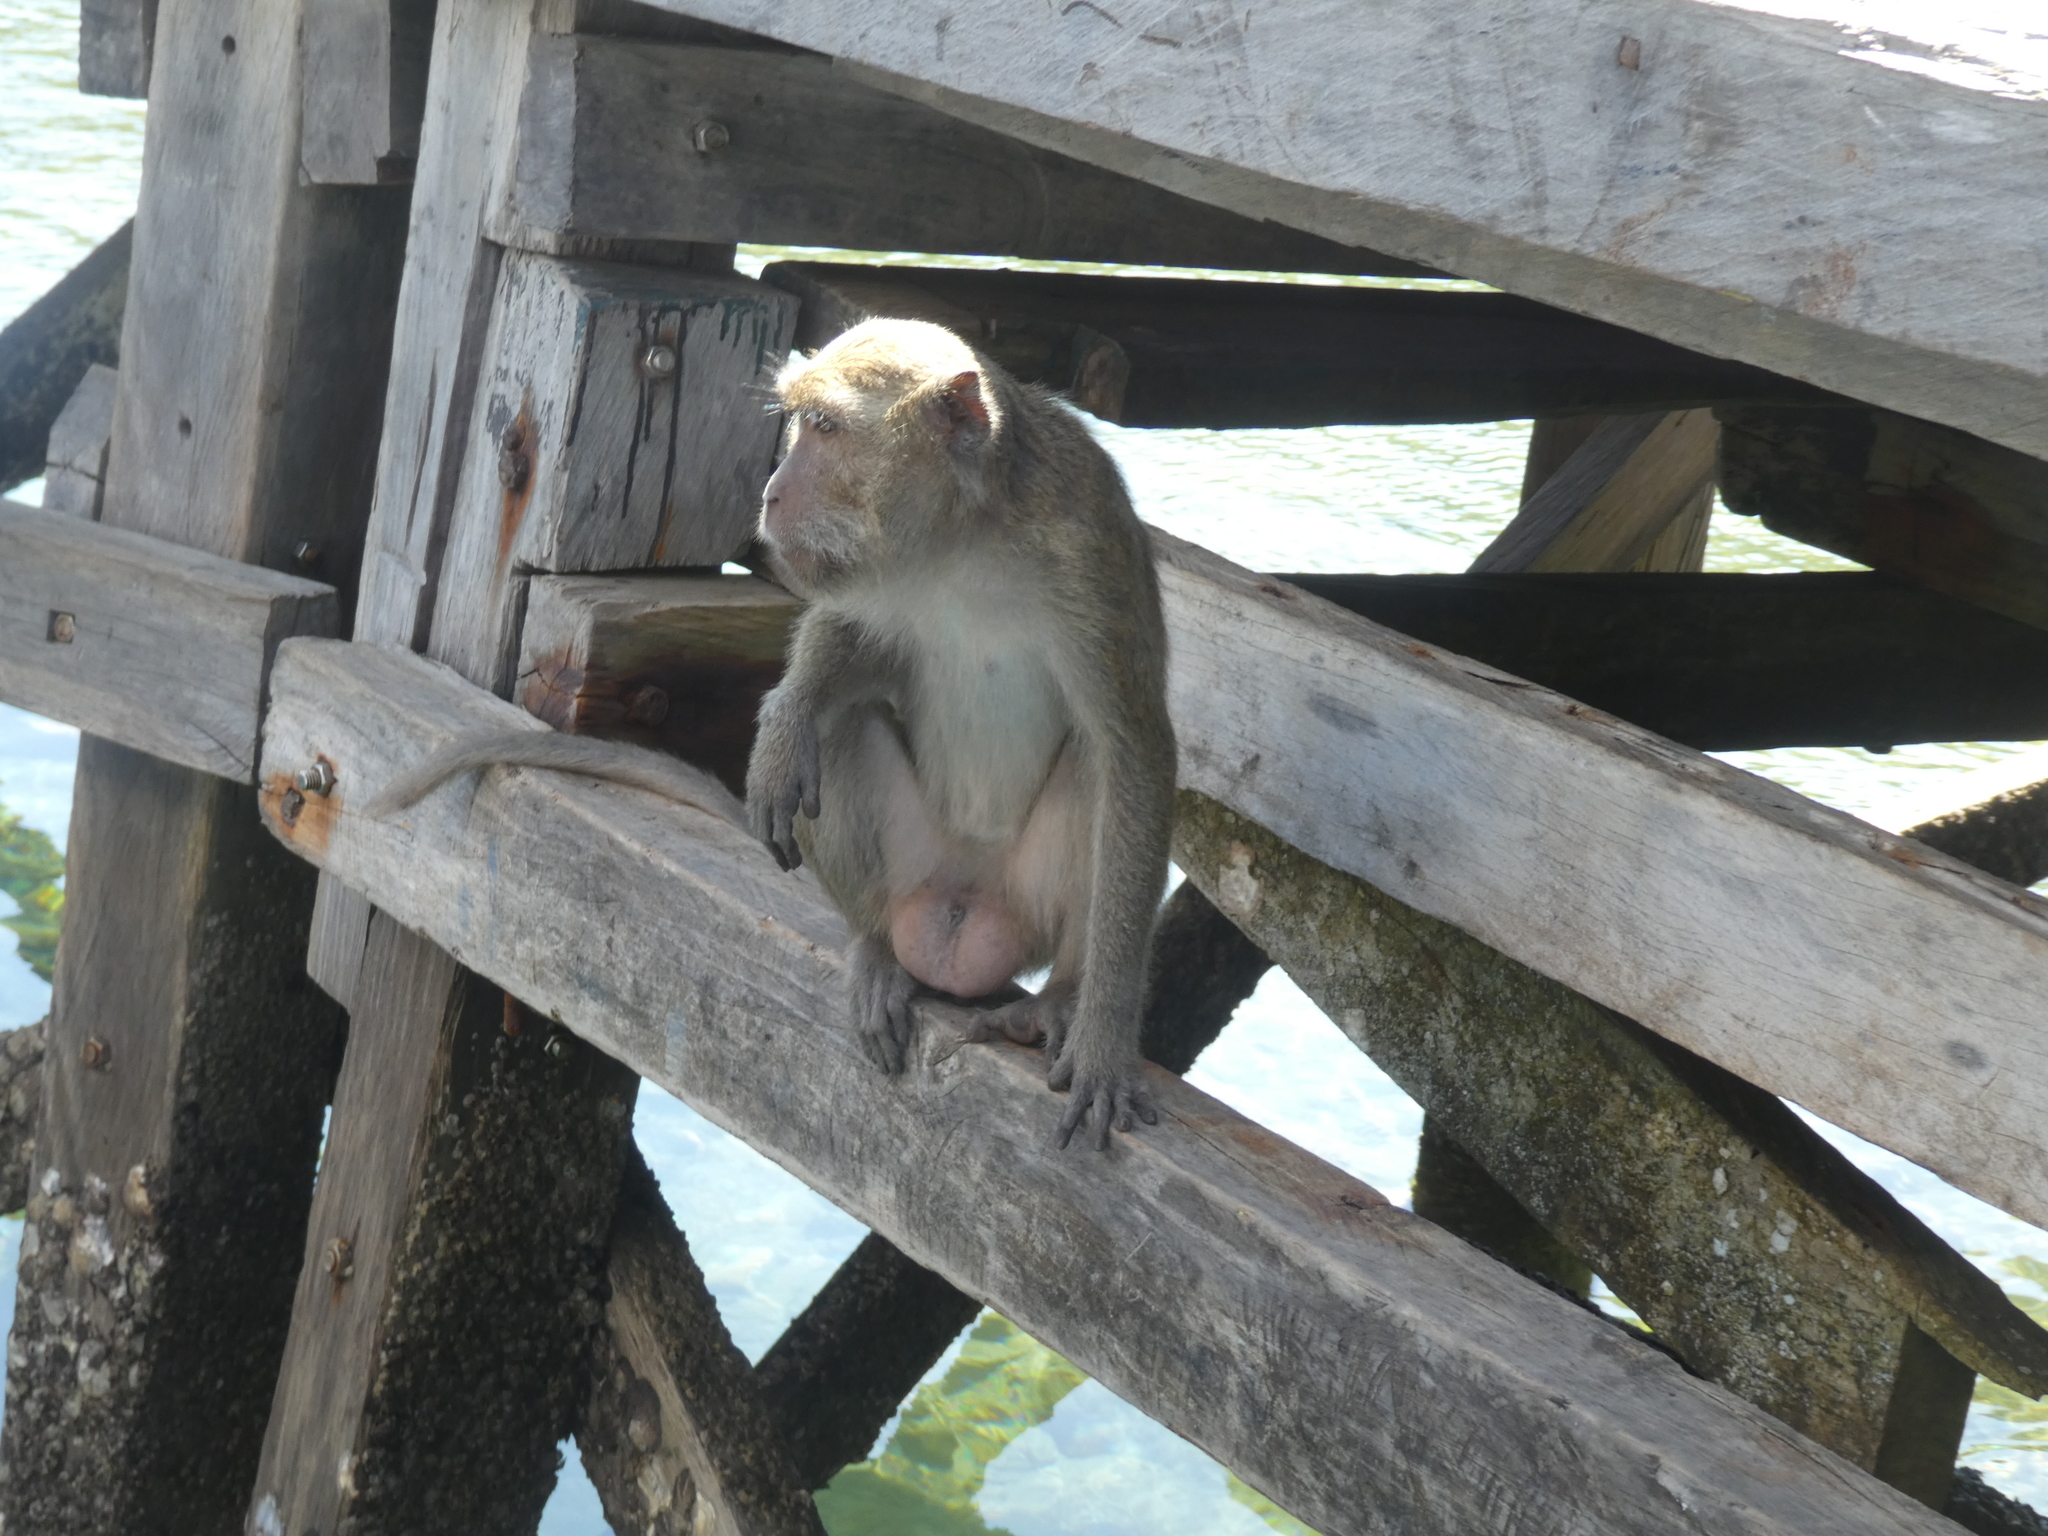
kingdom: Animalia
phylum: Chordata
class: Mammalia
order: Primates
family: Cercopithecidae
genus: Macaca
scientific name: Macaca fascicularis
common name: Crab-eating macaque
